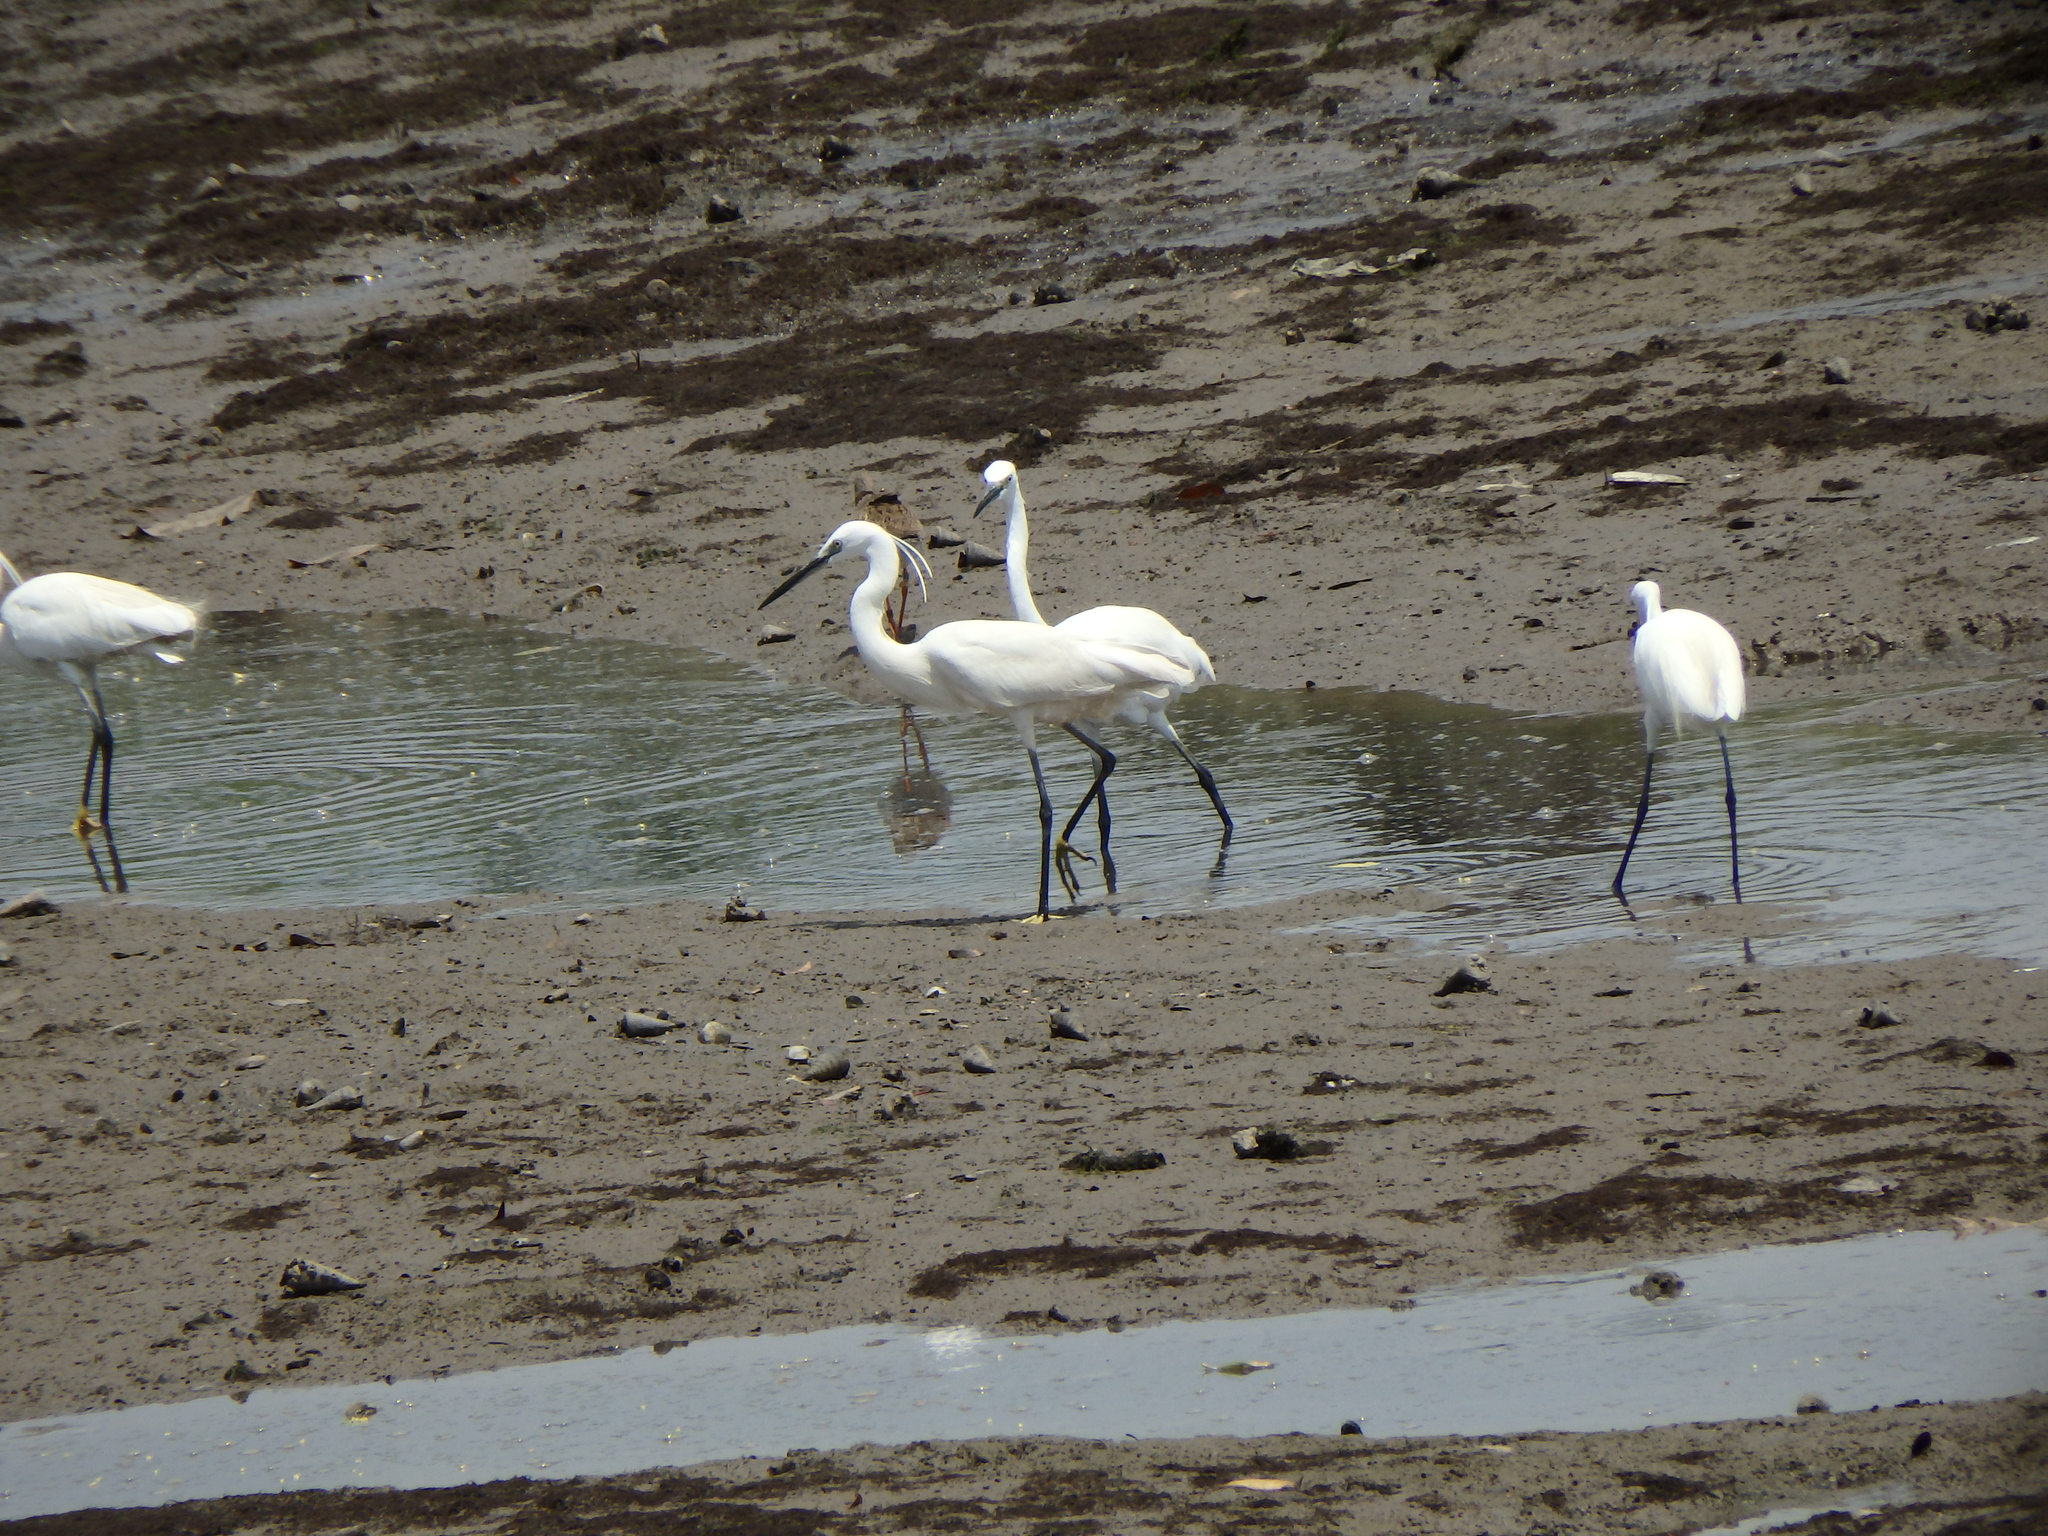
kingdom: Animalia
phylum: Chordata
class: Aves
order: Pelecaniformes
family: Ardeidae
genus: Egretta
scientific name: Egretta garzetta
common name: Little egret
